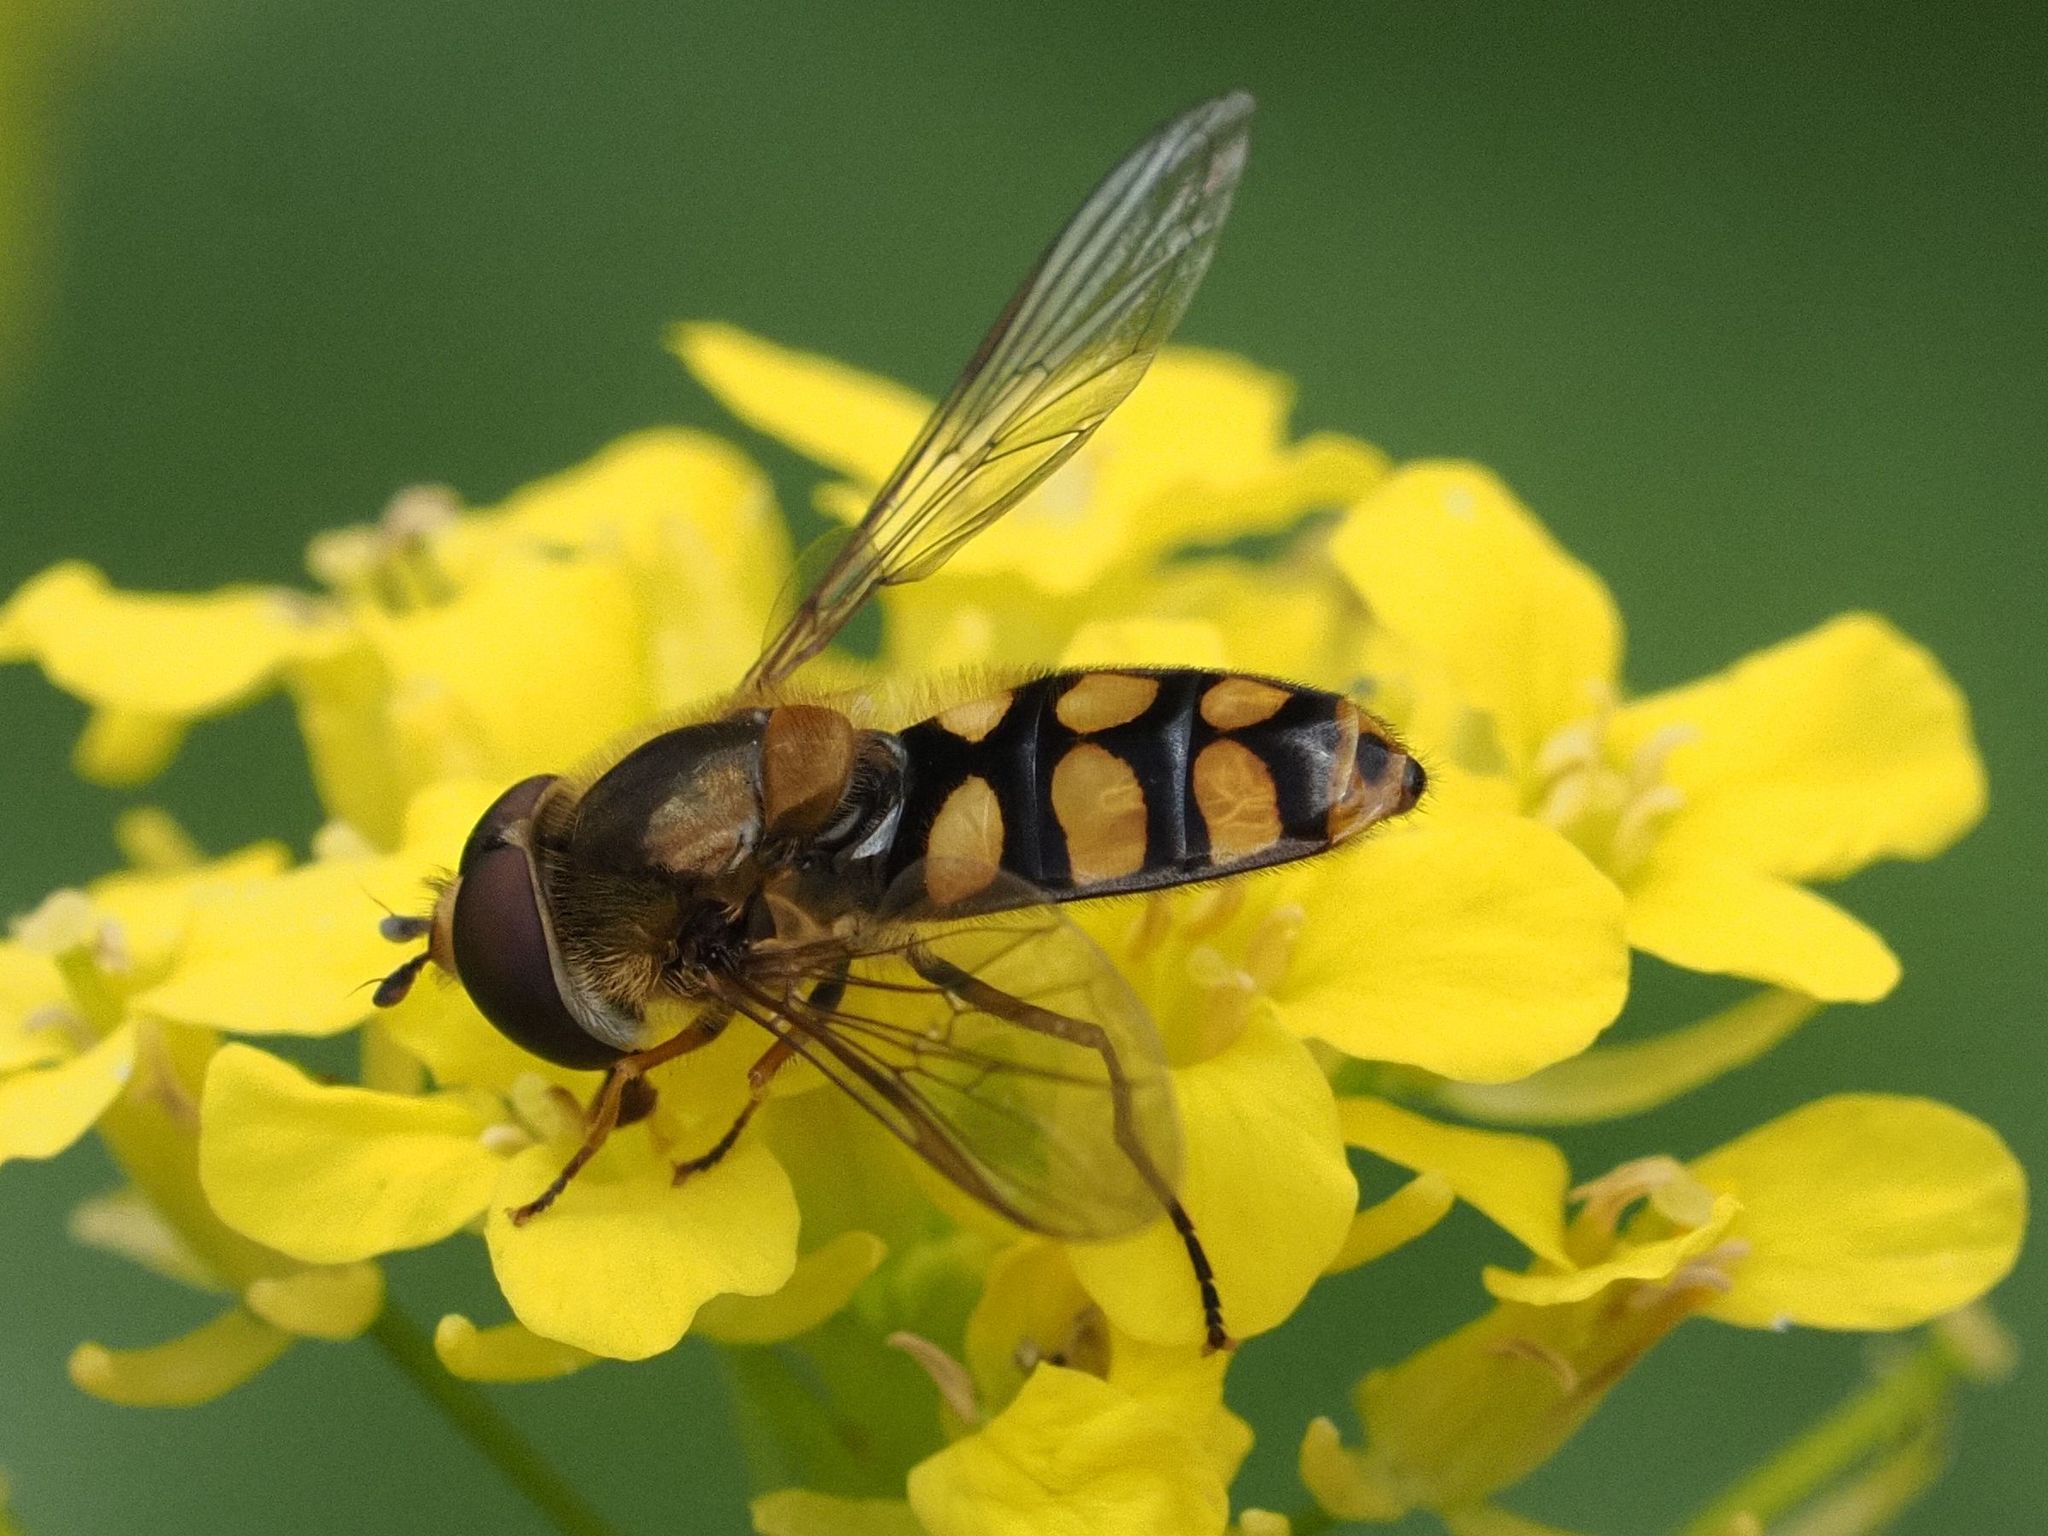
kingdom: Animalia
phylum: Arthropoda
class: Insecta
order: Diptera
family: Syrphidae
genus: Eupeodes
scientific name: Eupeodes luniger
